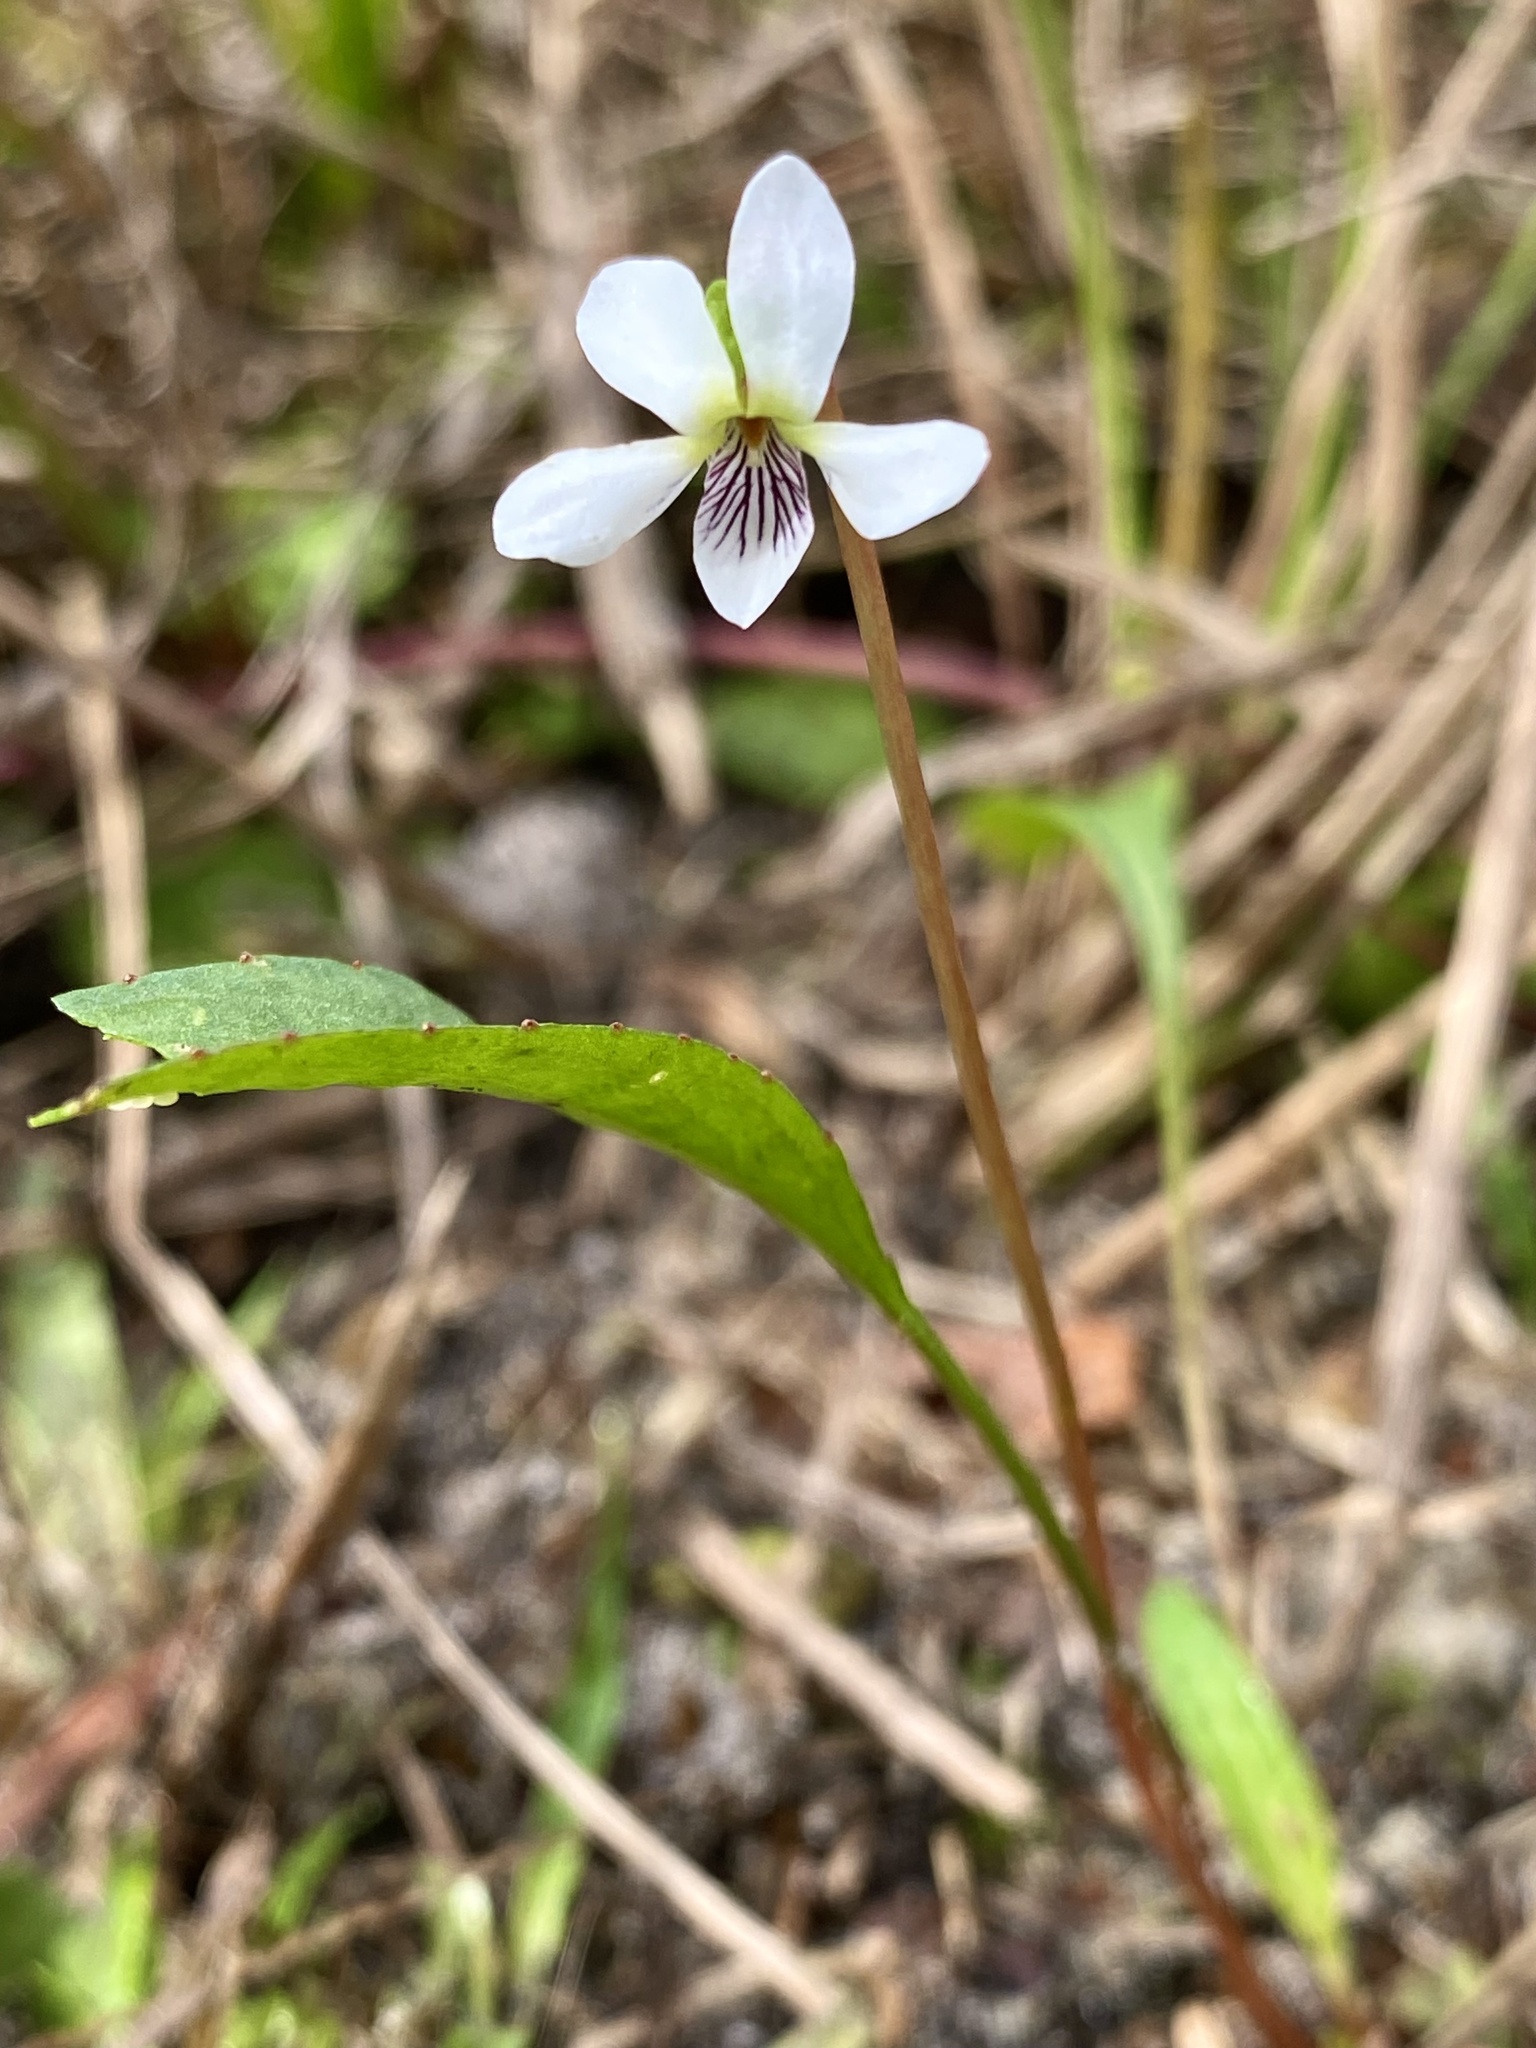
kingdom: Plantae
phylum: Tracheophyta
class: Magnoliopsida
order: Malpighiales
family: Violaceae
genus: Viola
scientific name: Viola lanceolata
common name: Bog white violet
